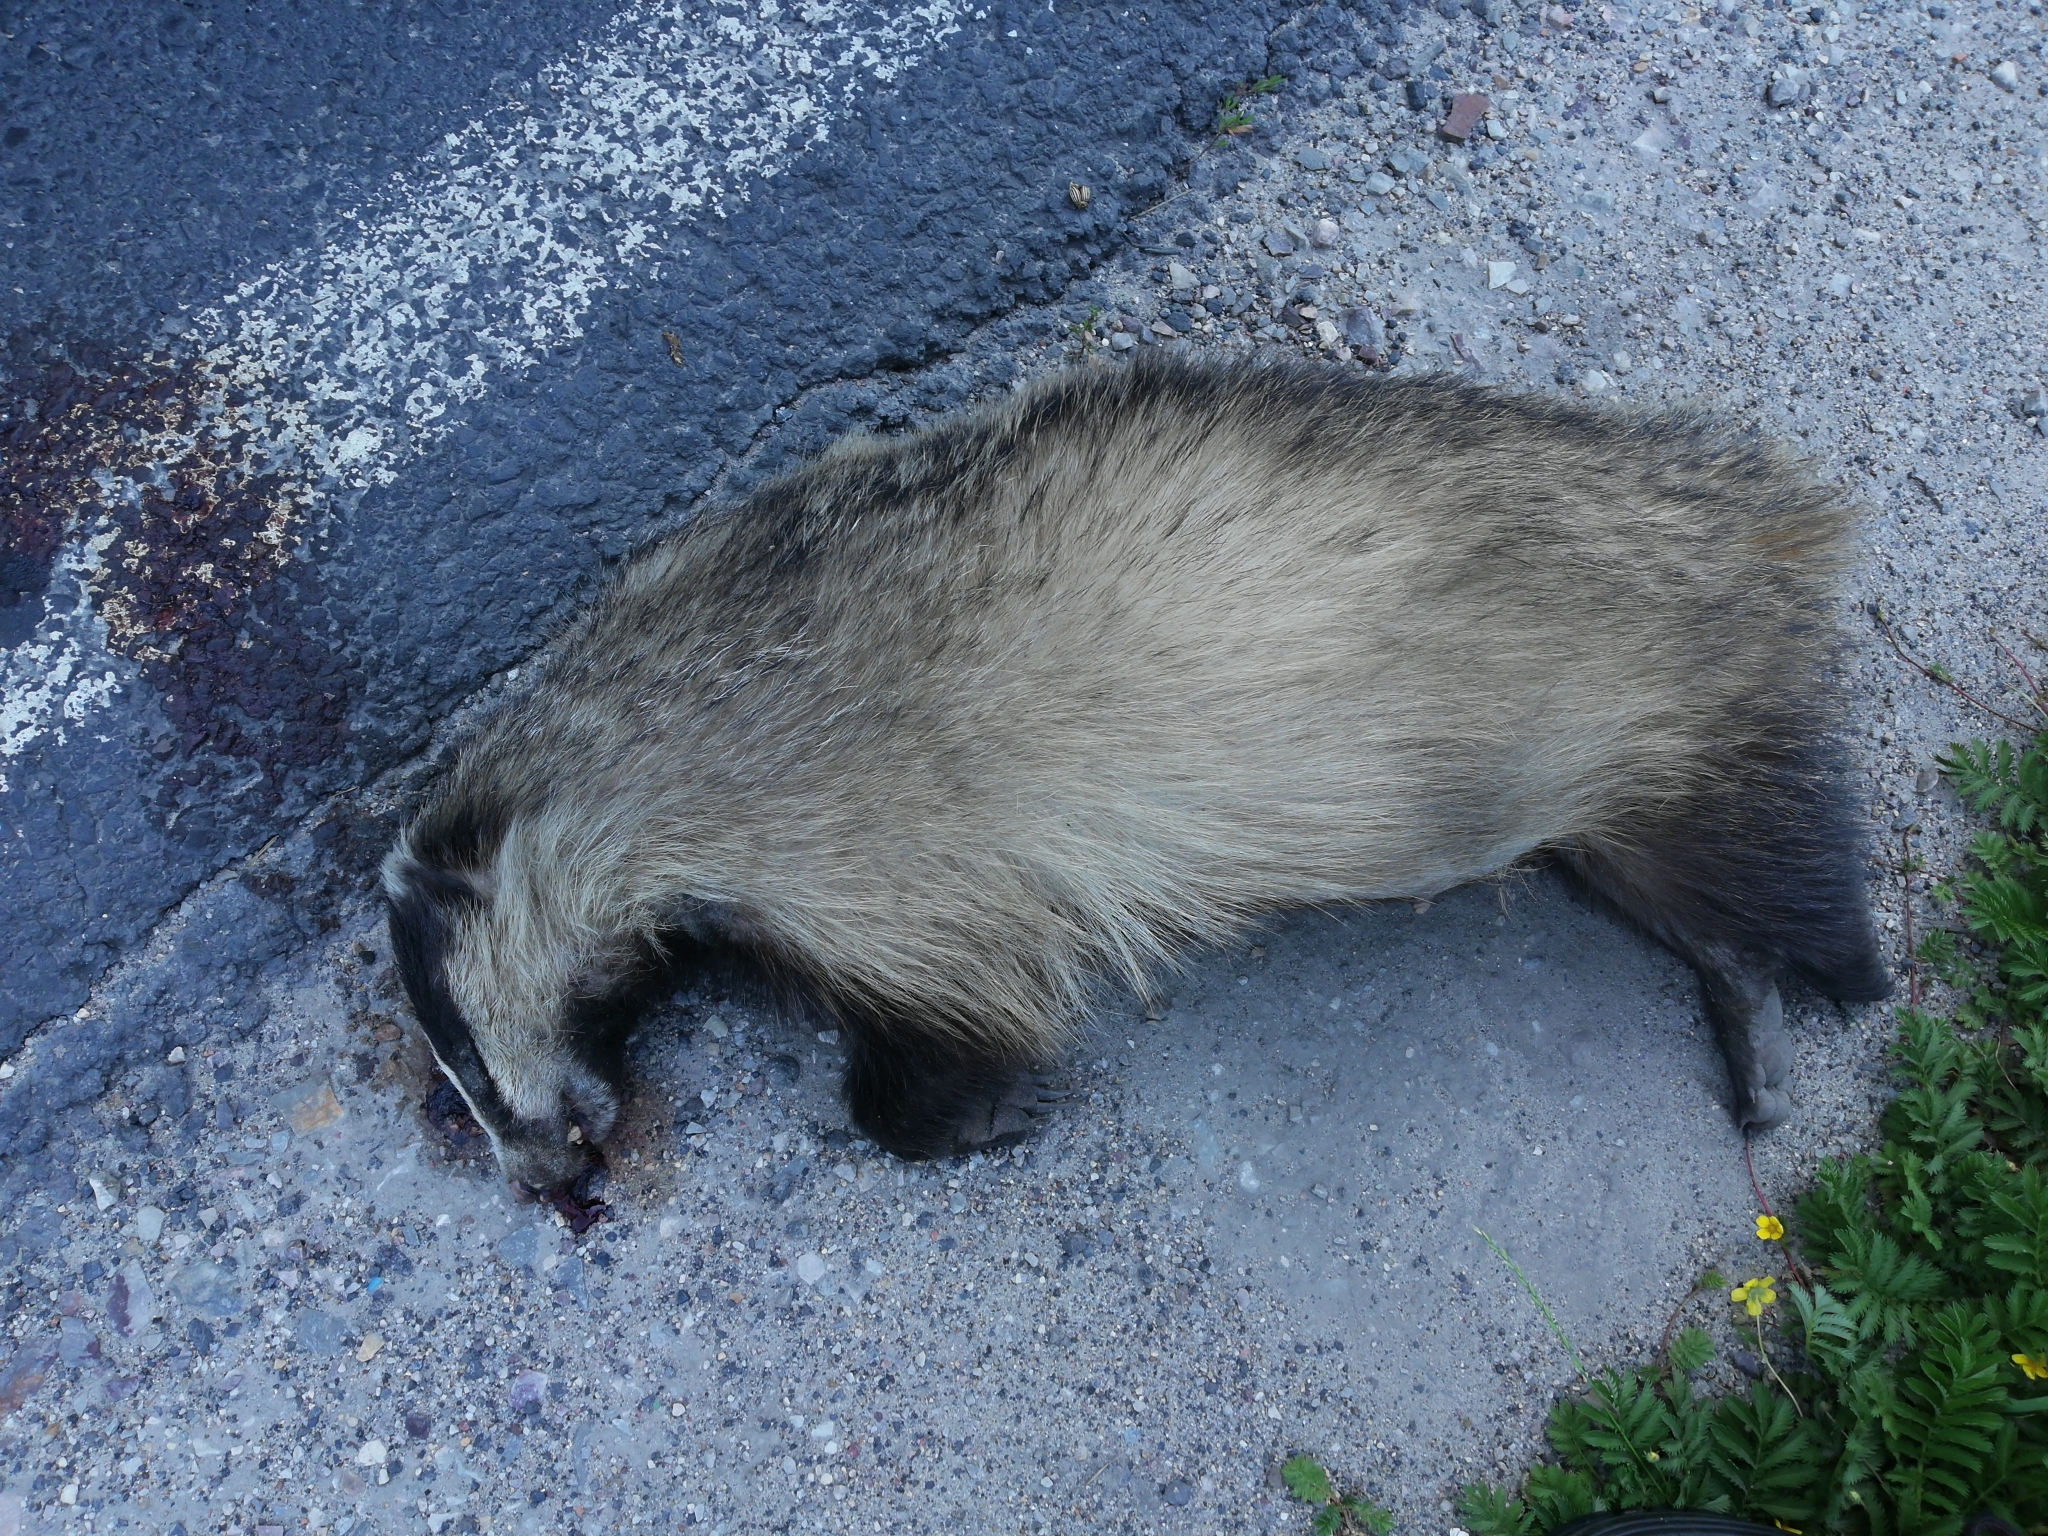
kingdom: Animalia
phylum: Chordata
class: Mammalia
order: Carnivora
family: Mustelidae
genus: Meles
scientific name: Meles meles
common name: Eurasian badger
